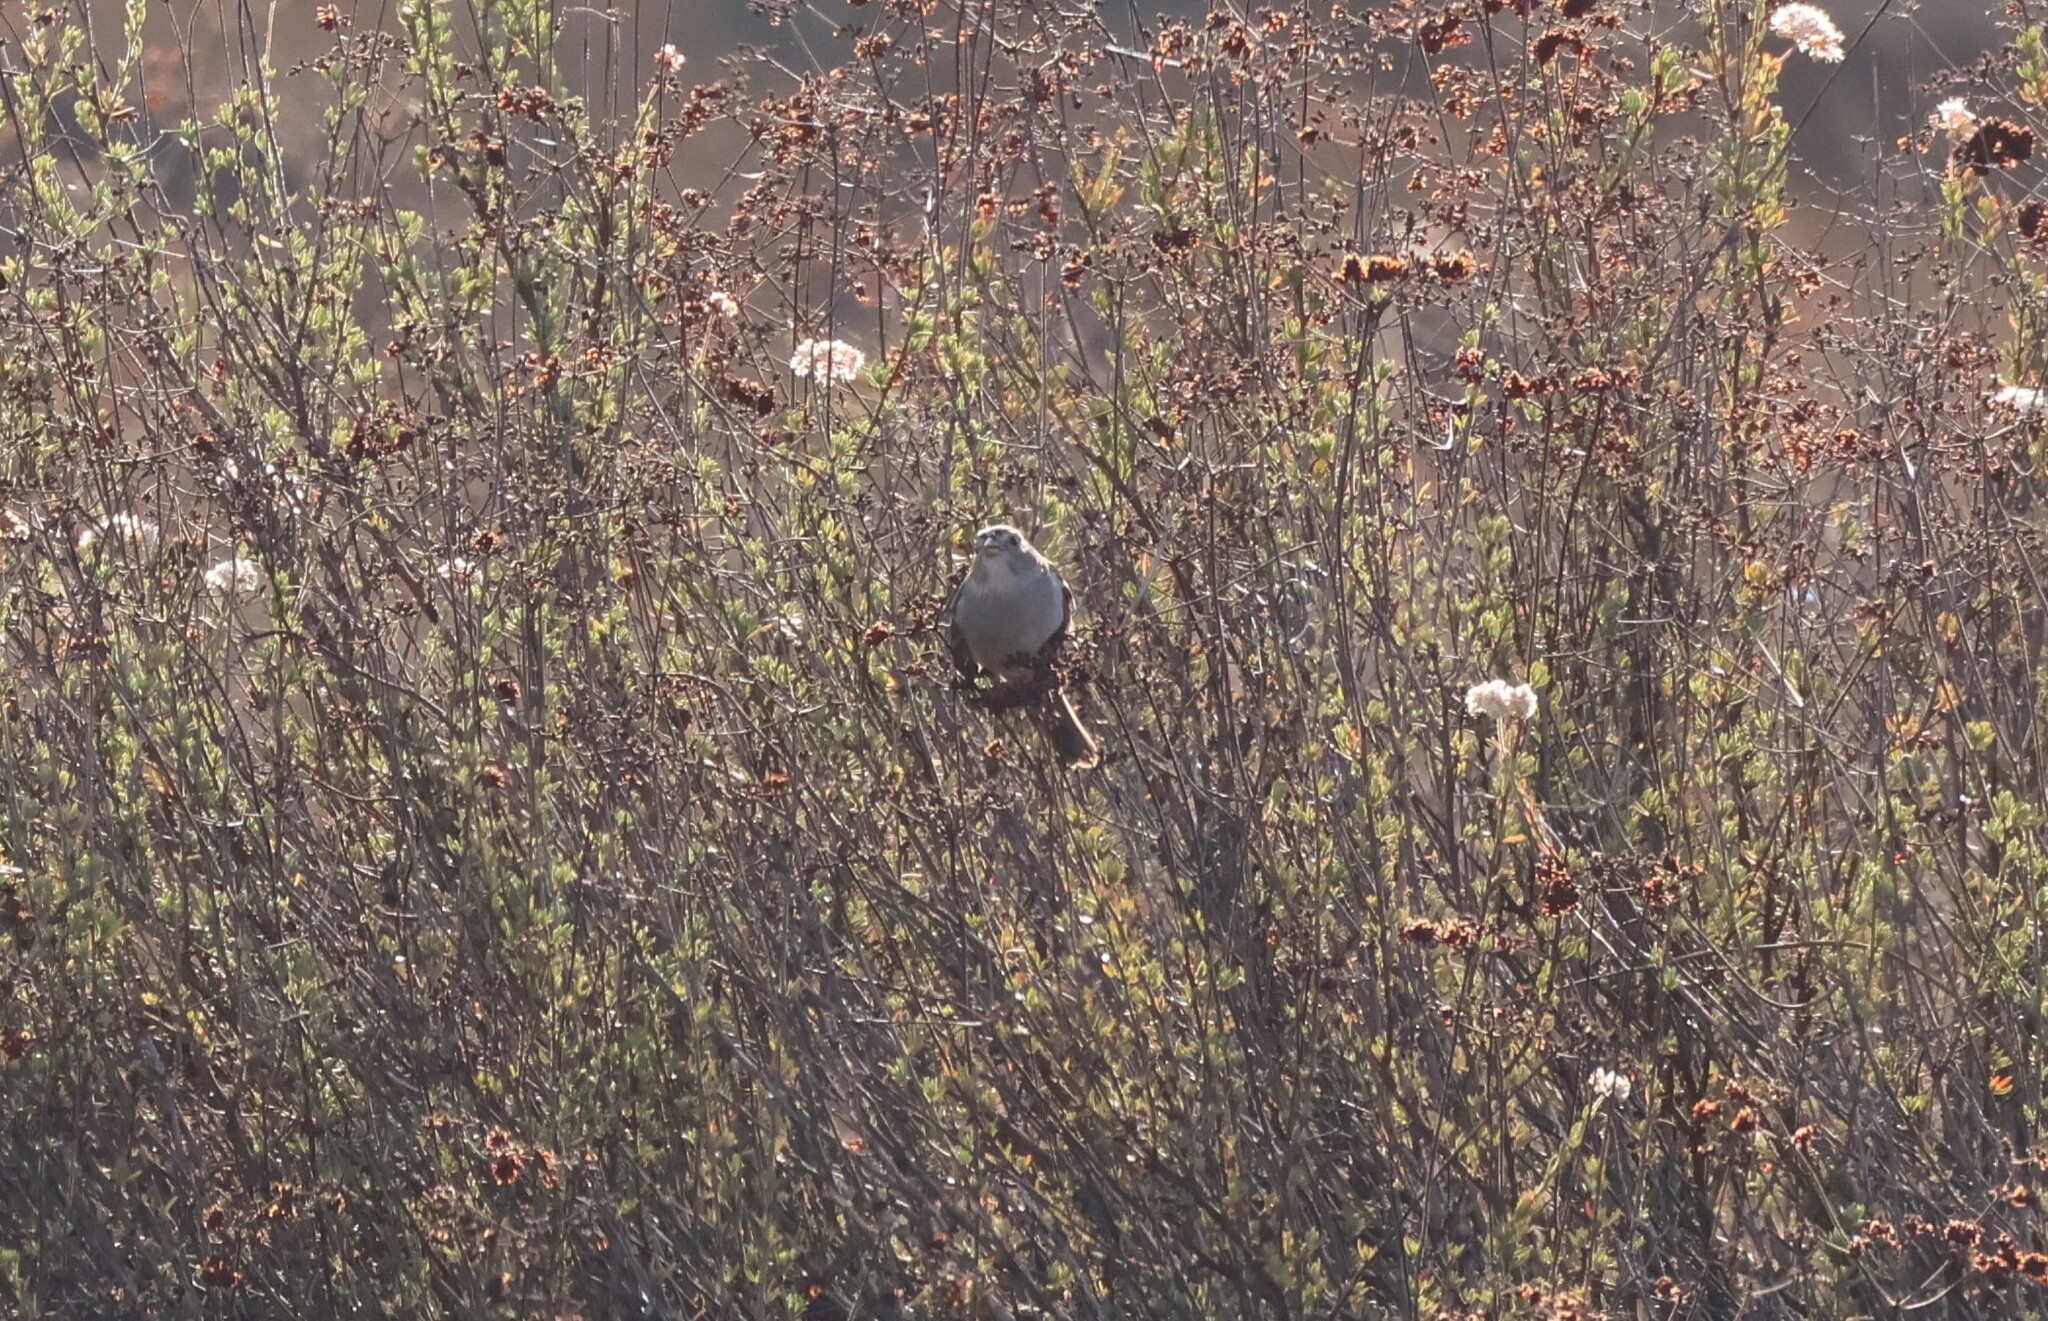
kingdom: Animalia
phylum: Chordata
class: Aves
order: Passeriformes
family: Passerellidae
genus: Zonotrichia
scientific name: Zonotrichia leucophrys
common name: White-crowned sparrow
